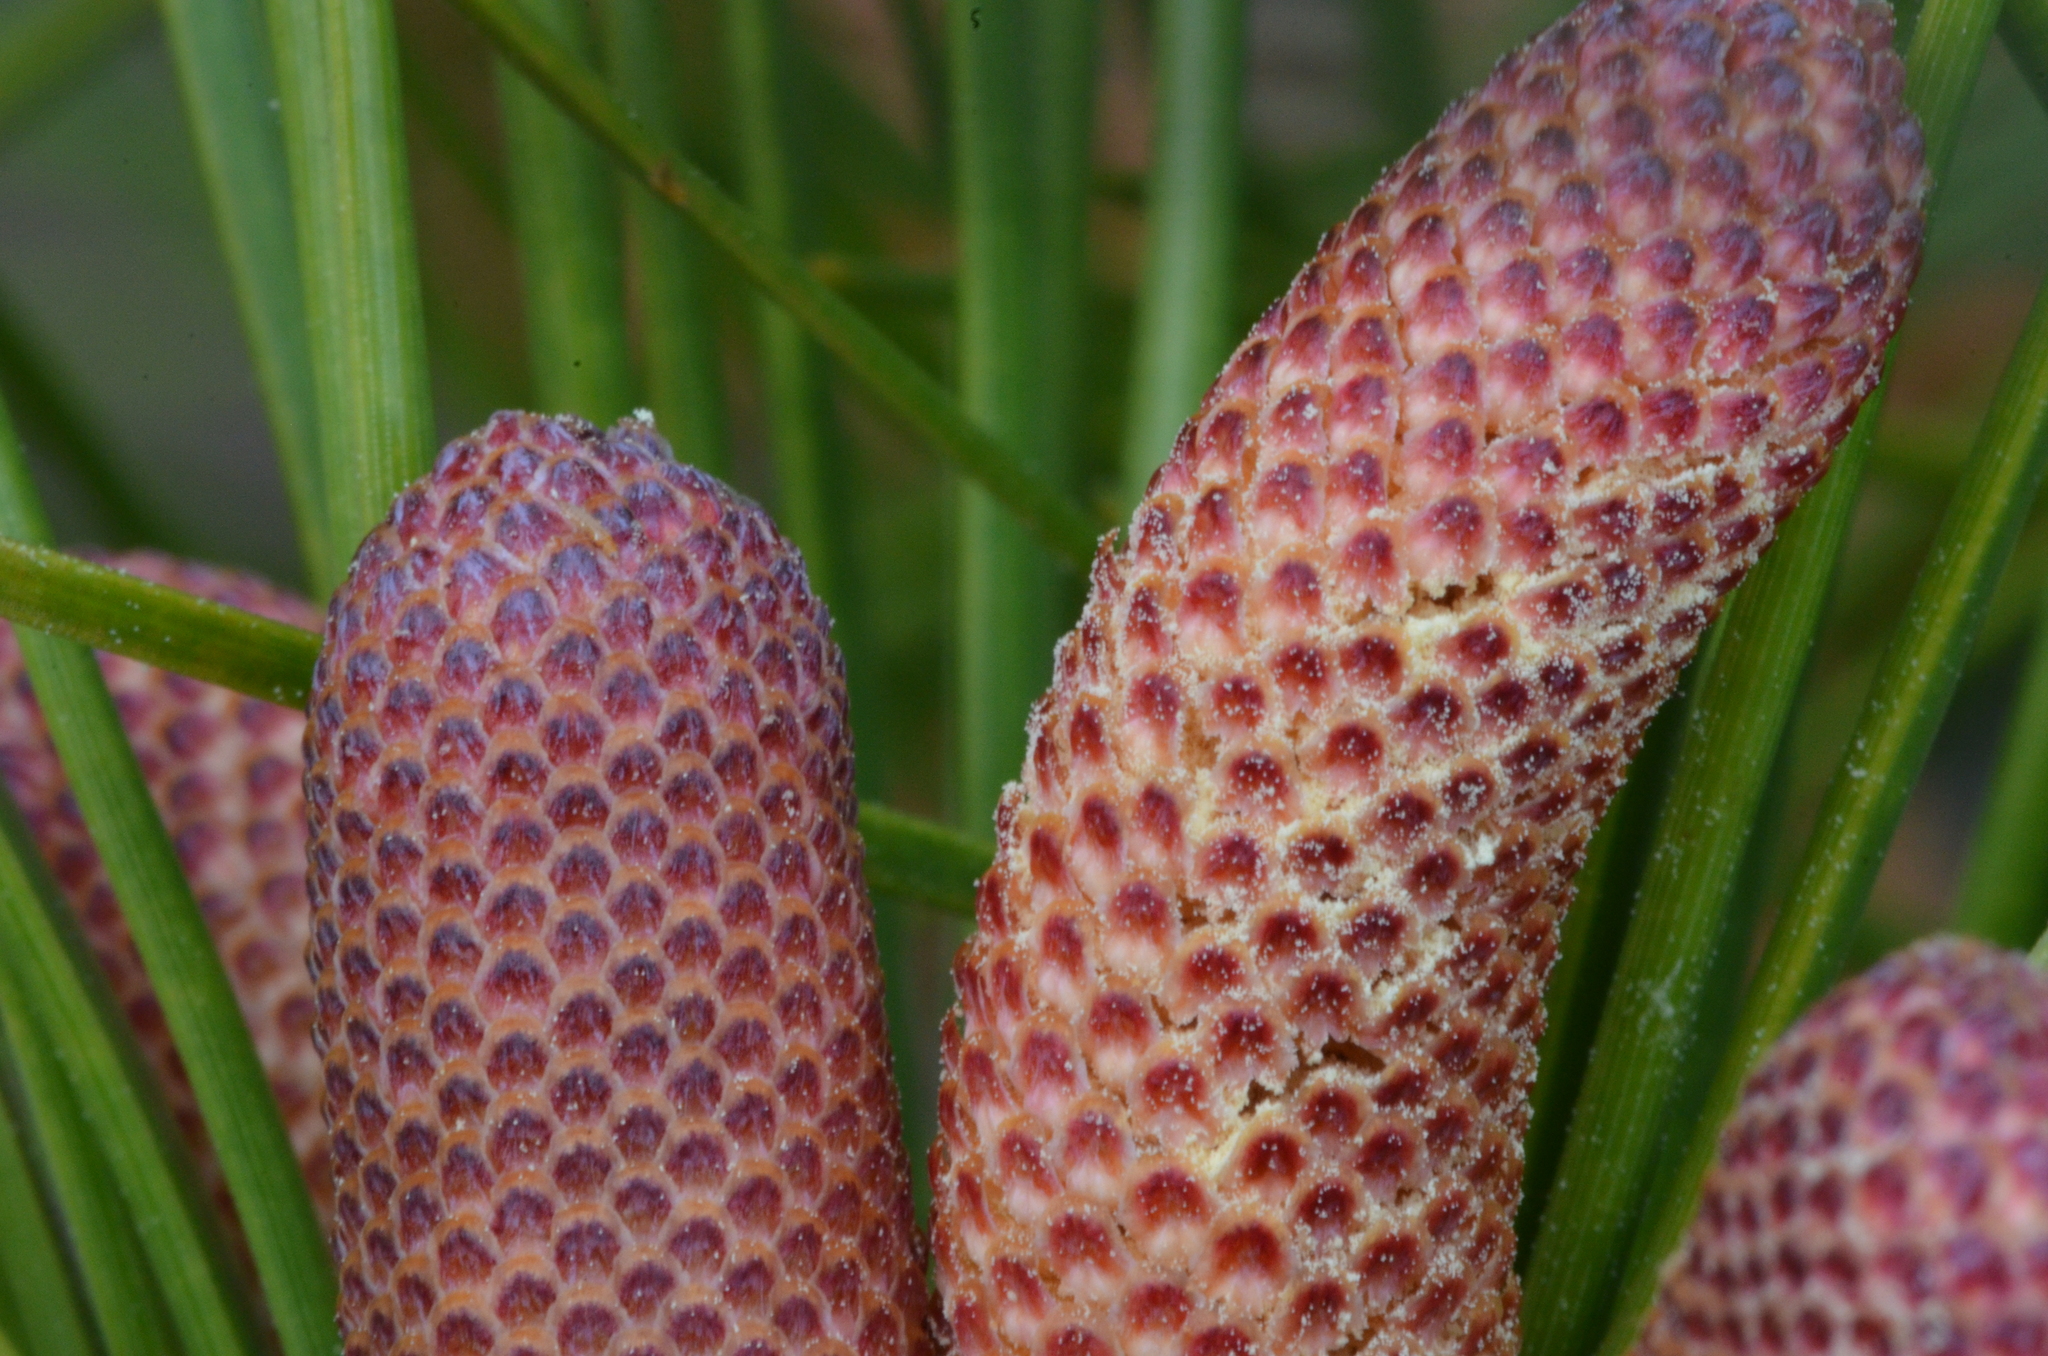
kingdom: Plantae
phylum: Tracheophyta
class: Pinopsida
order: Pinales
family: Pinaceae
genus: Pinus
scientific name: Pinus elliottii
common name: Slash pine
